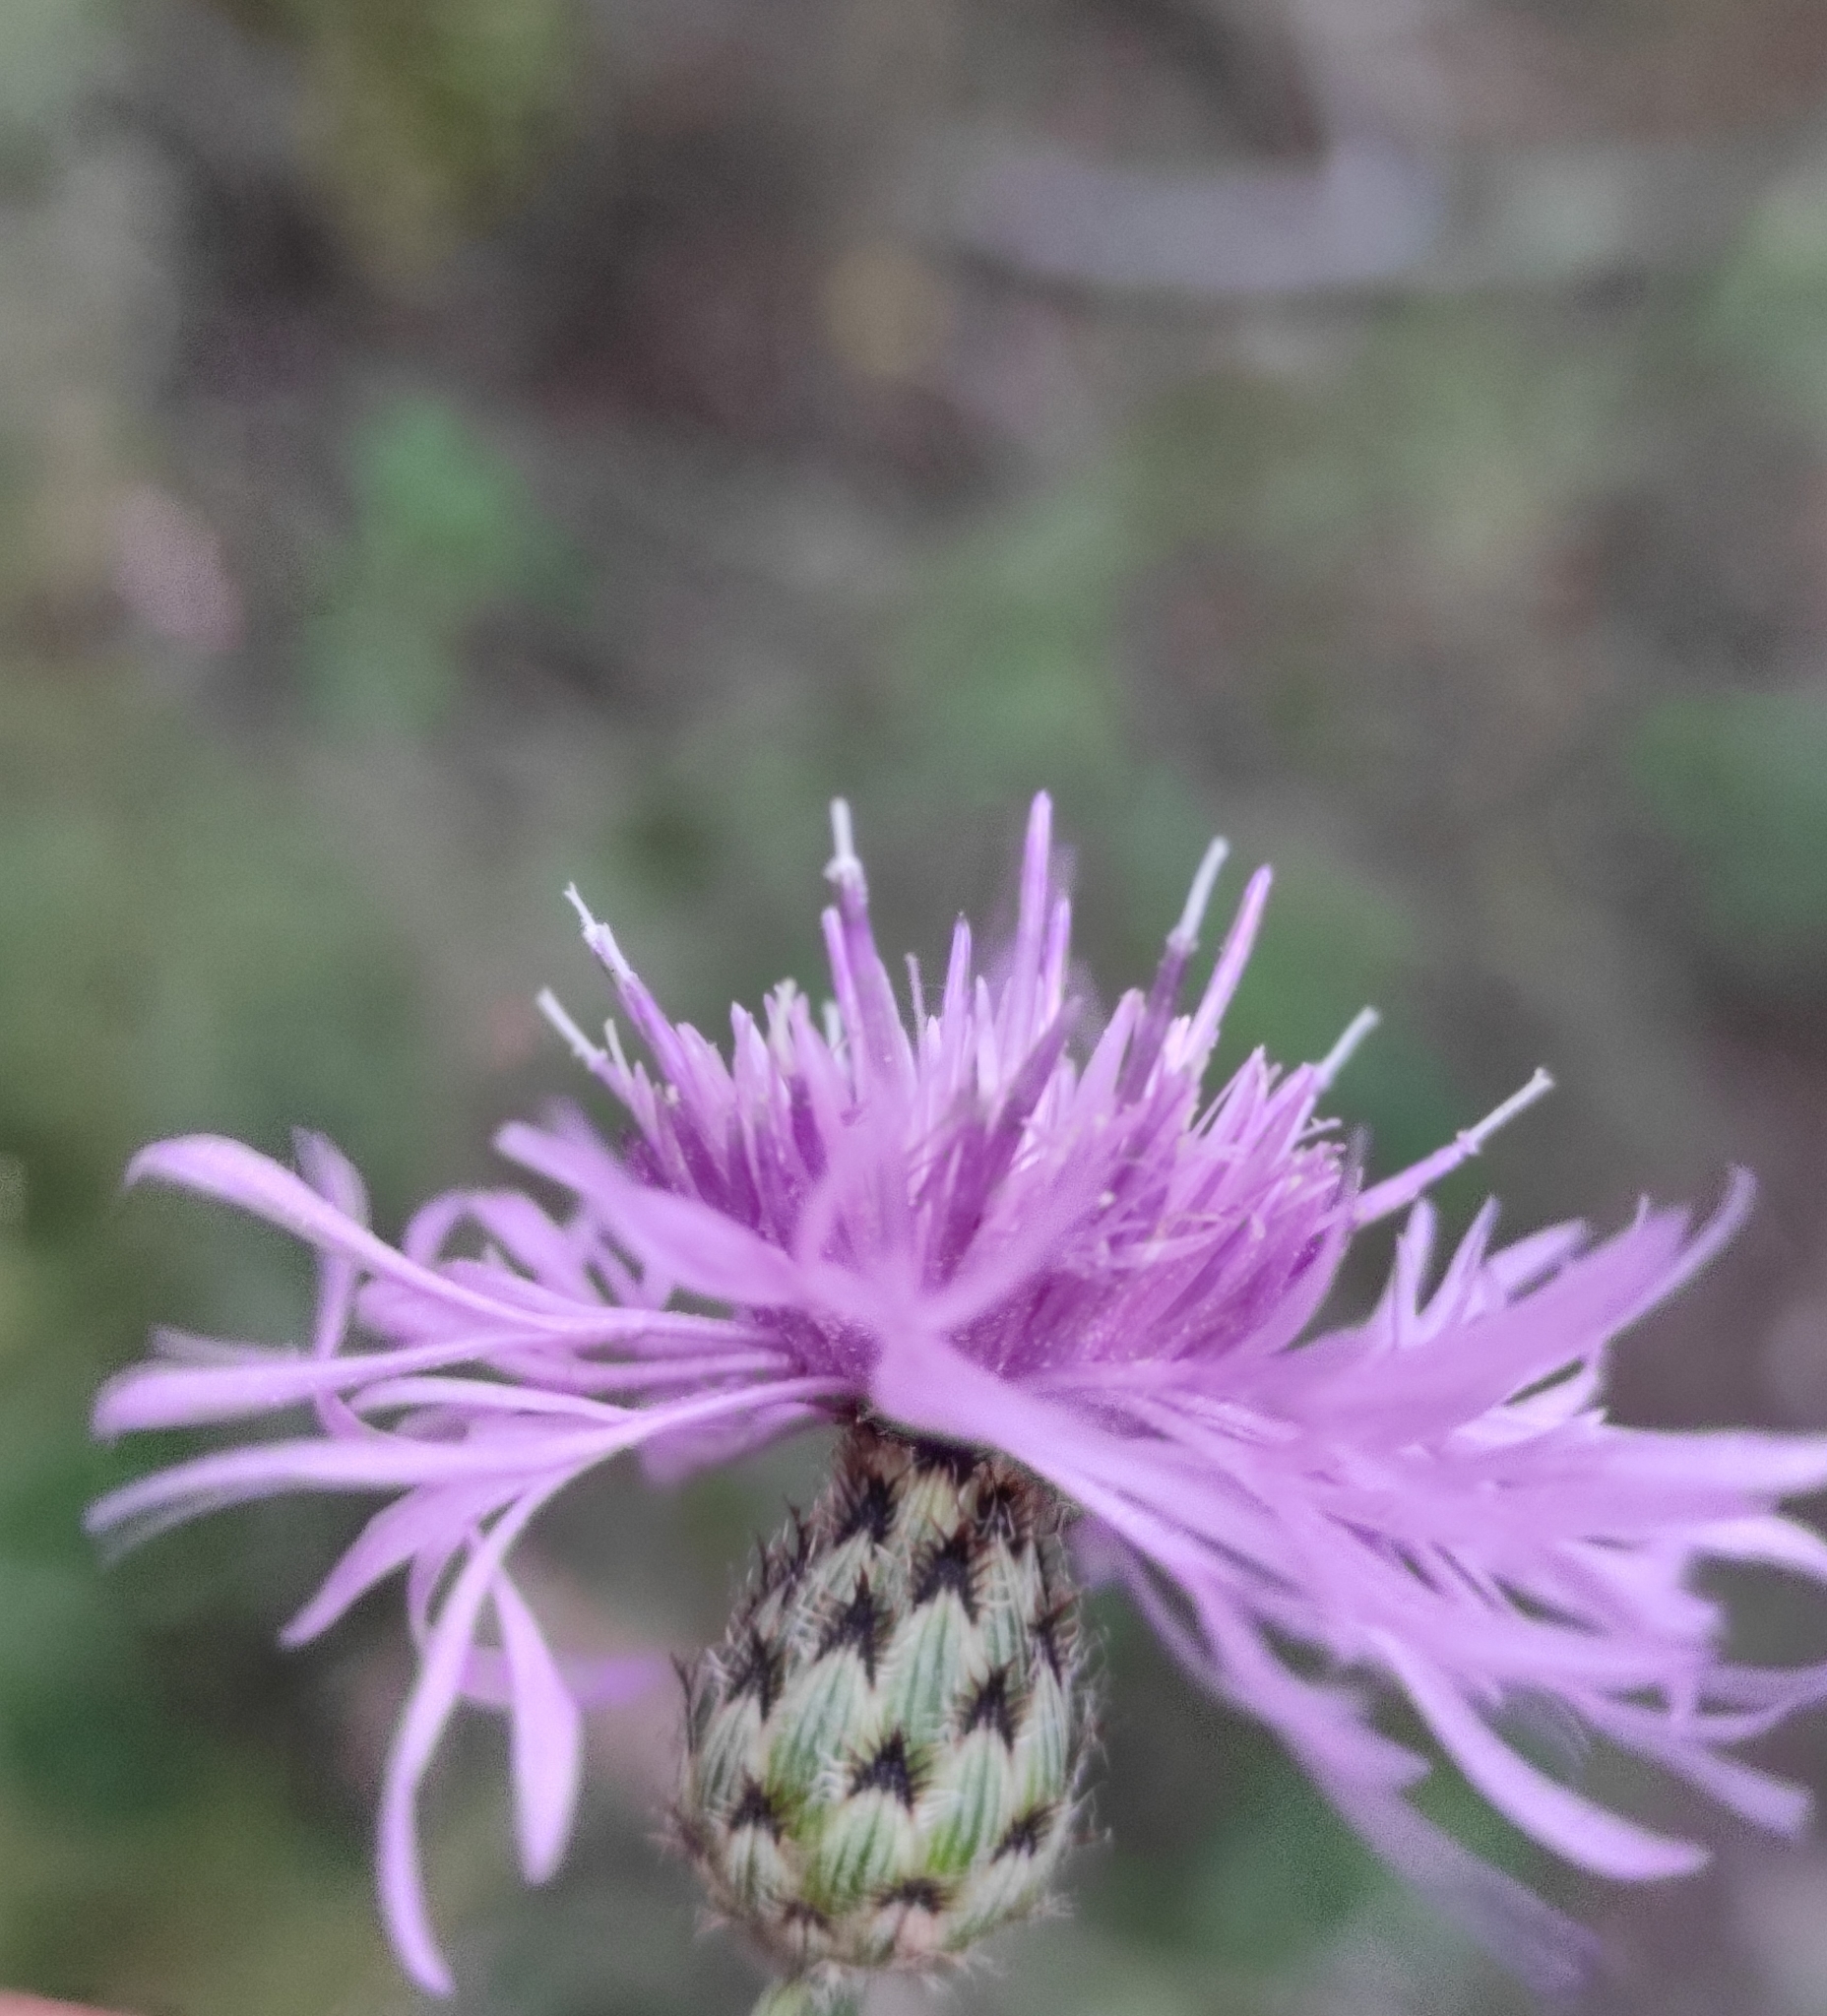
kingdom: Plantae
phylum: Tracheophyta
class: Magnoliopsida
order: Asterales
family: Asteraceae
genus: Centaurea
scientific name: Centaurea stoebe
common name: Spotted knapweed
